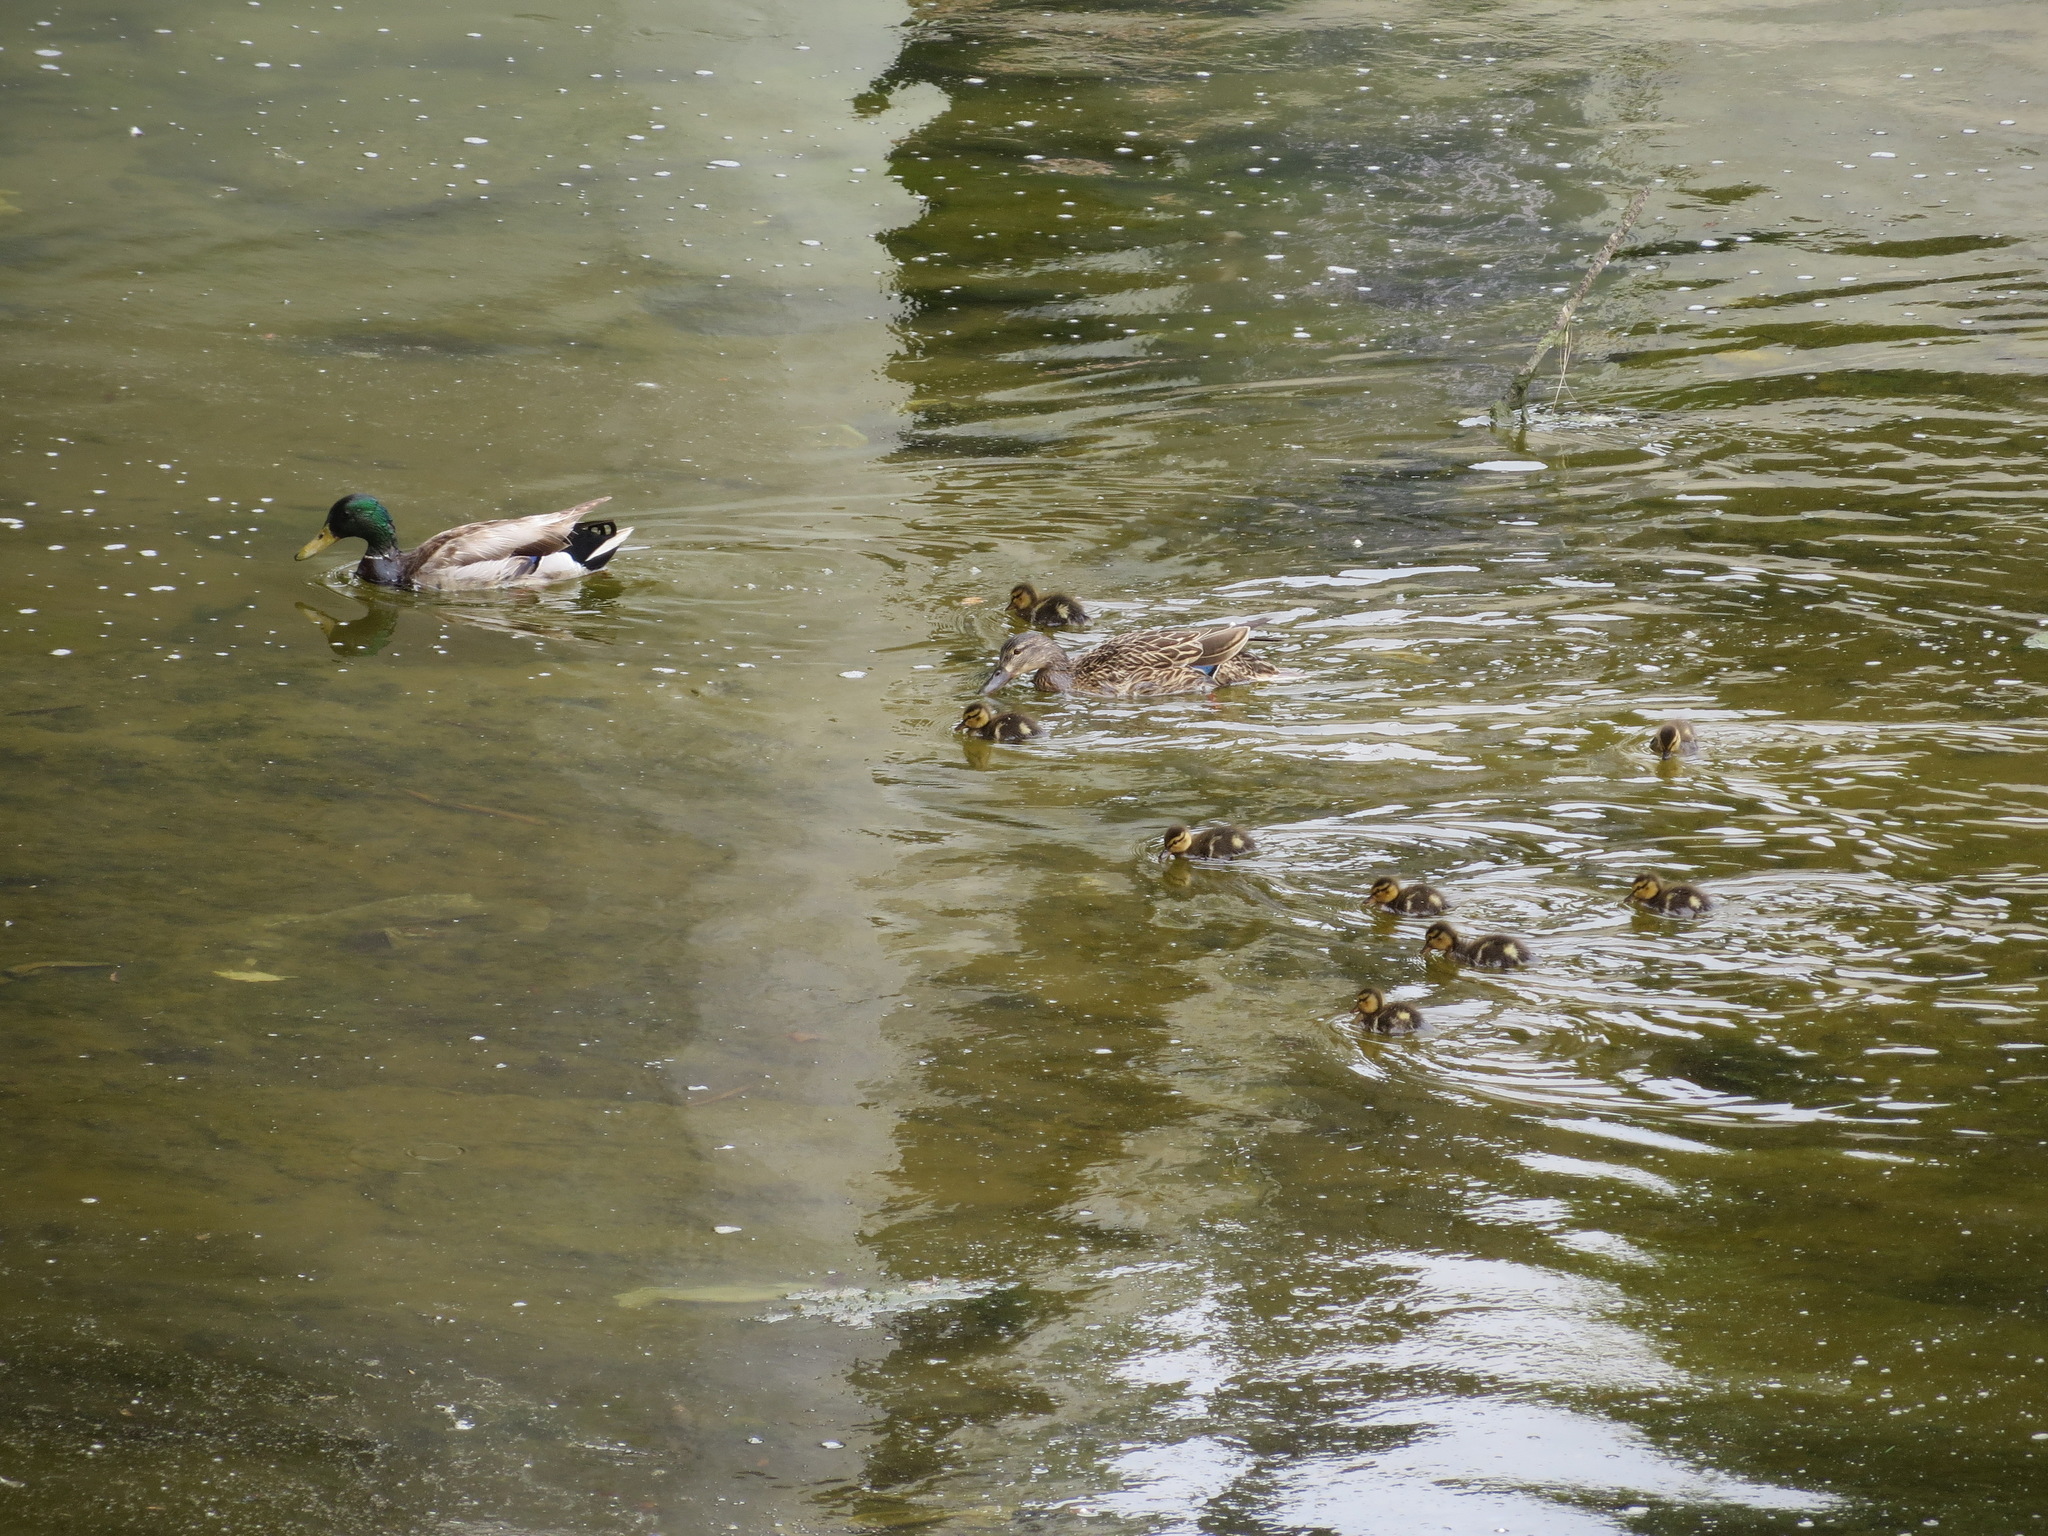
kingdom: Animalia
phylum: Chordata
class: Aves
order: Anseriformes
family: Anatidae
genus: Anas
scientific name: Anas platyrhynchos
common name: Mallard
